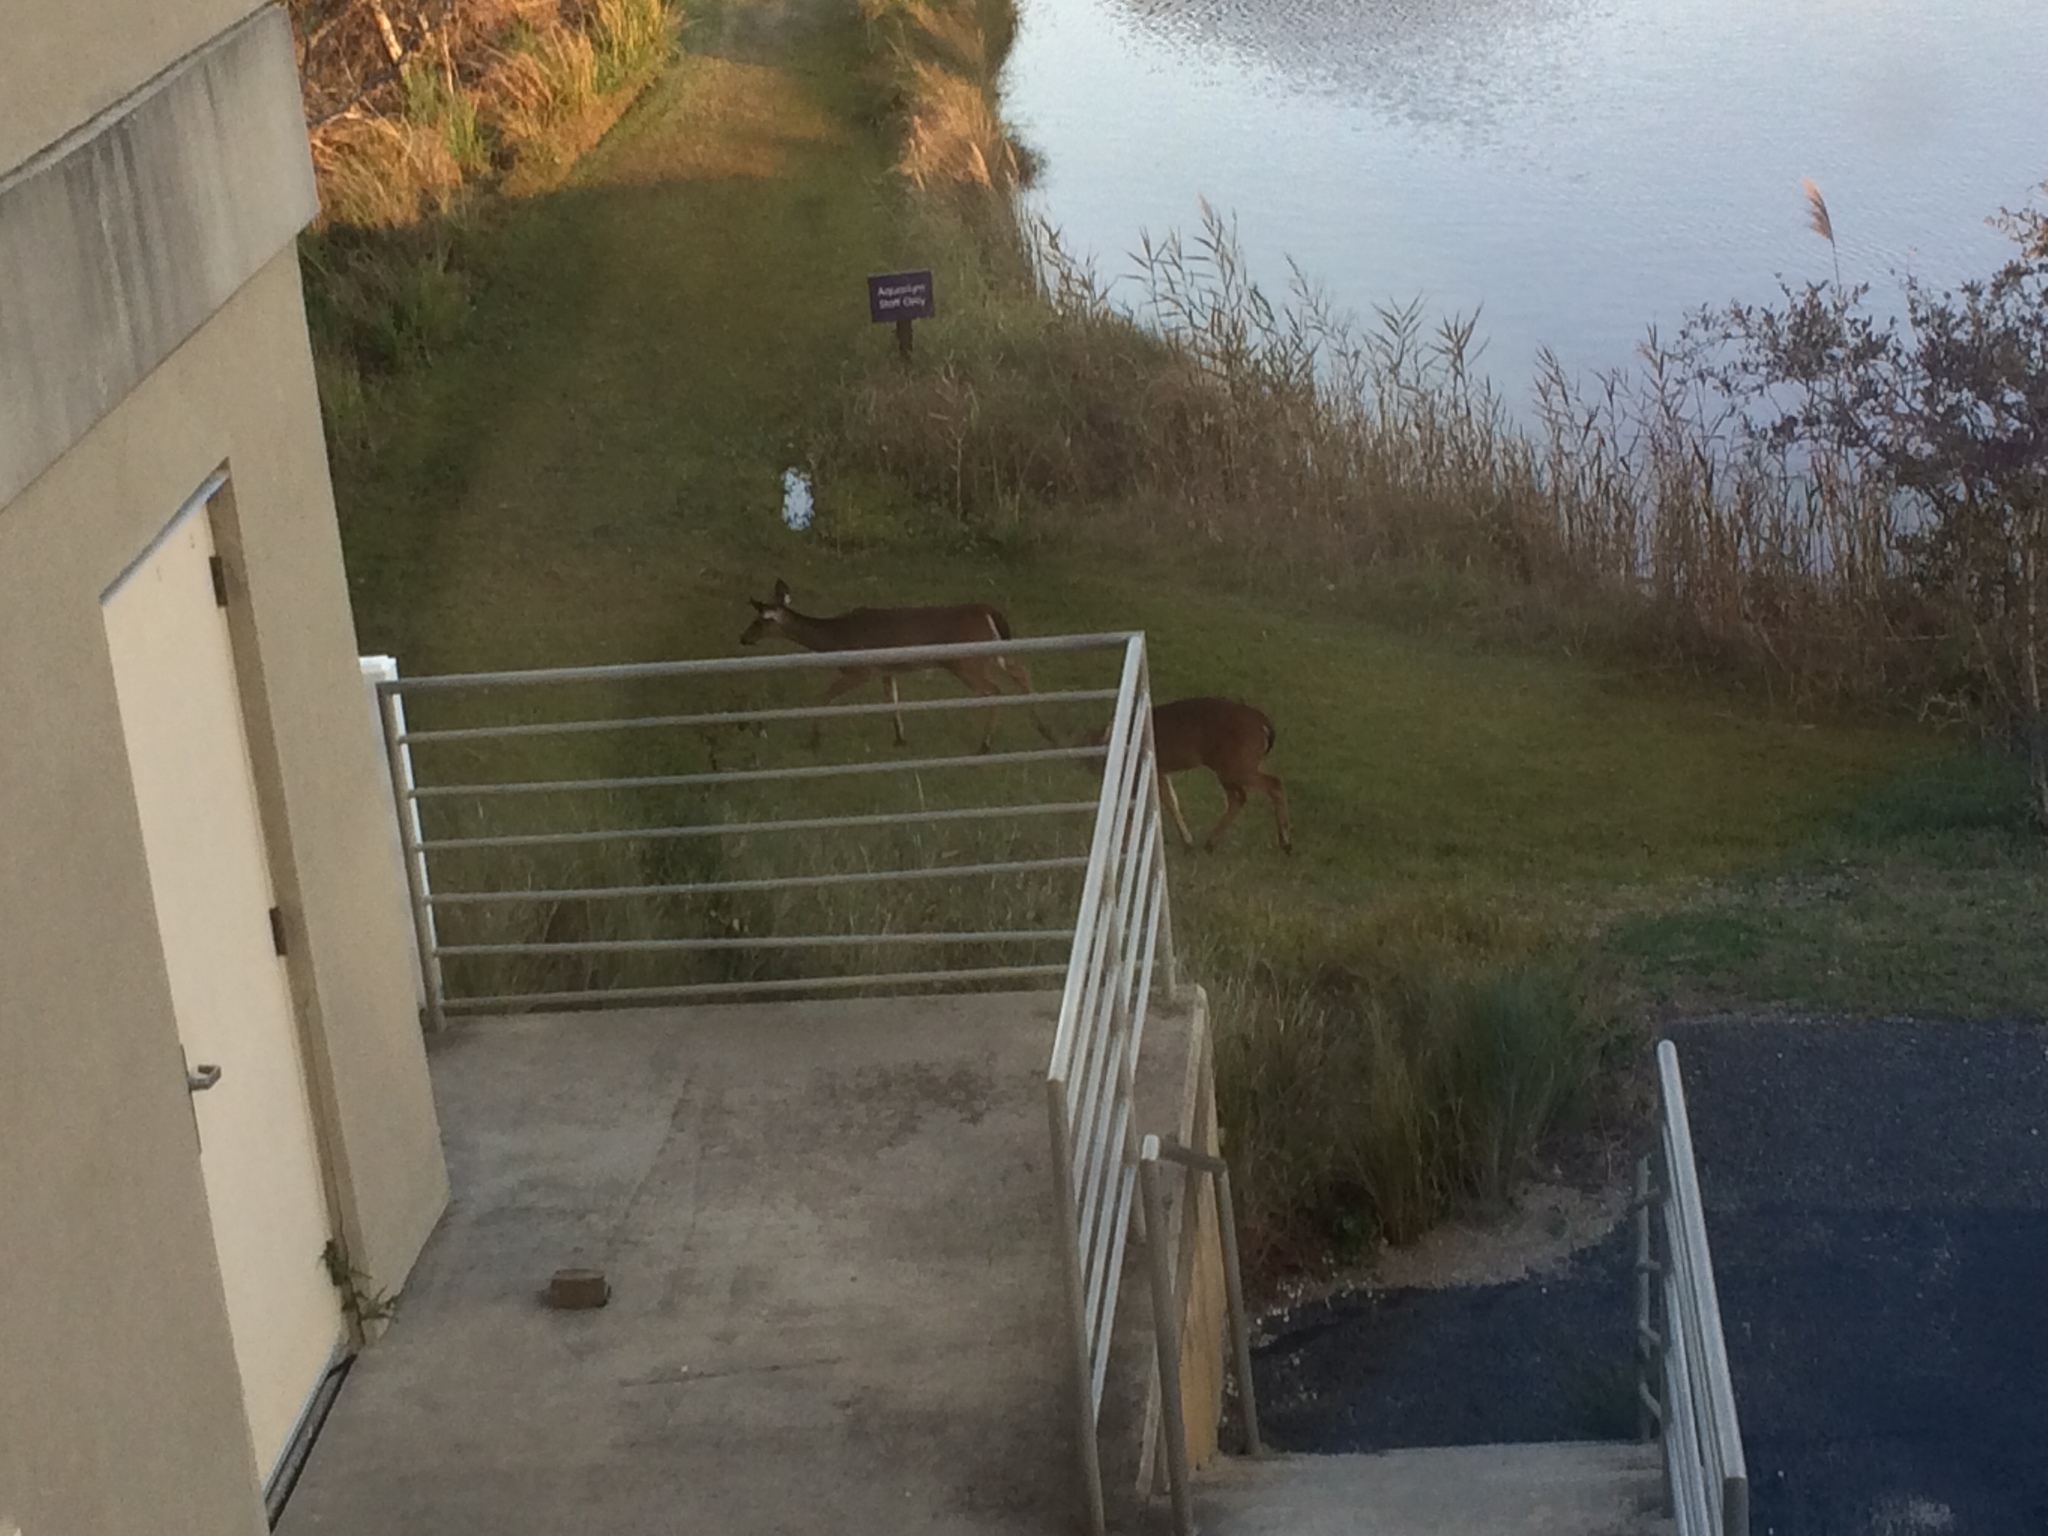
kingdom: Animalia
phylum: Chordata
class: Mammalia
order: Artiodactyla
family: Cervidae
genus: Odocoileus
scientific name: Odocoileus virginianus
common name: White-tailed deer
